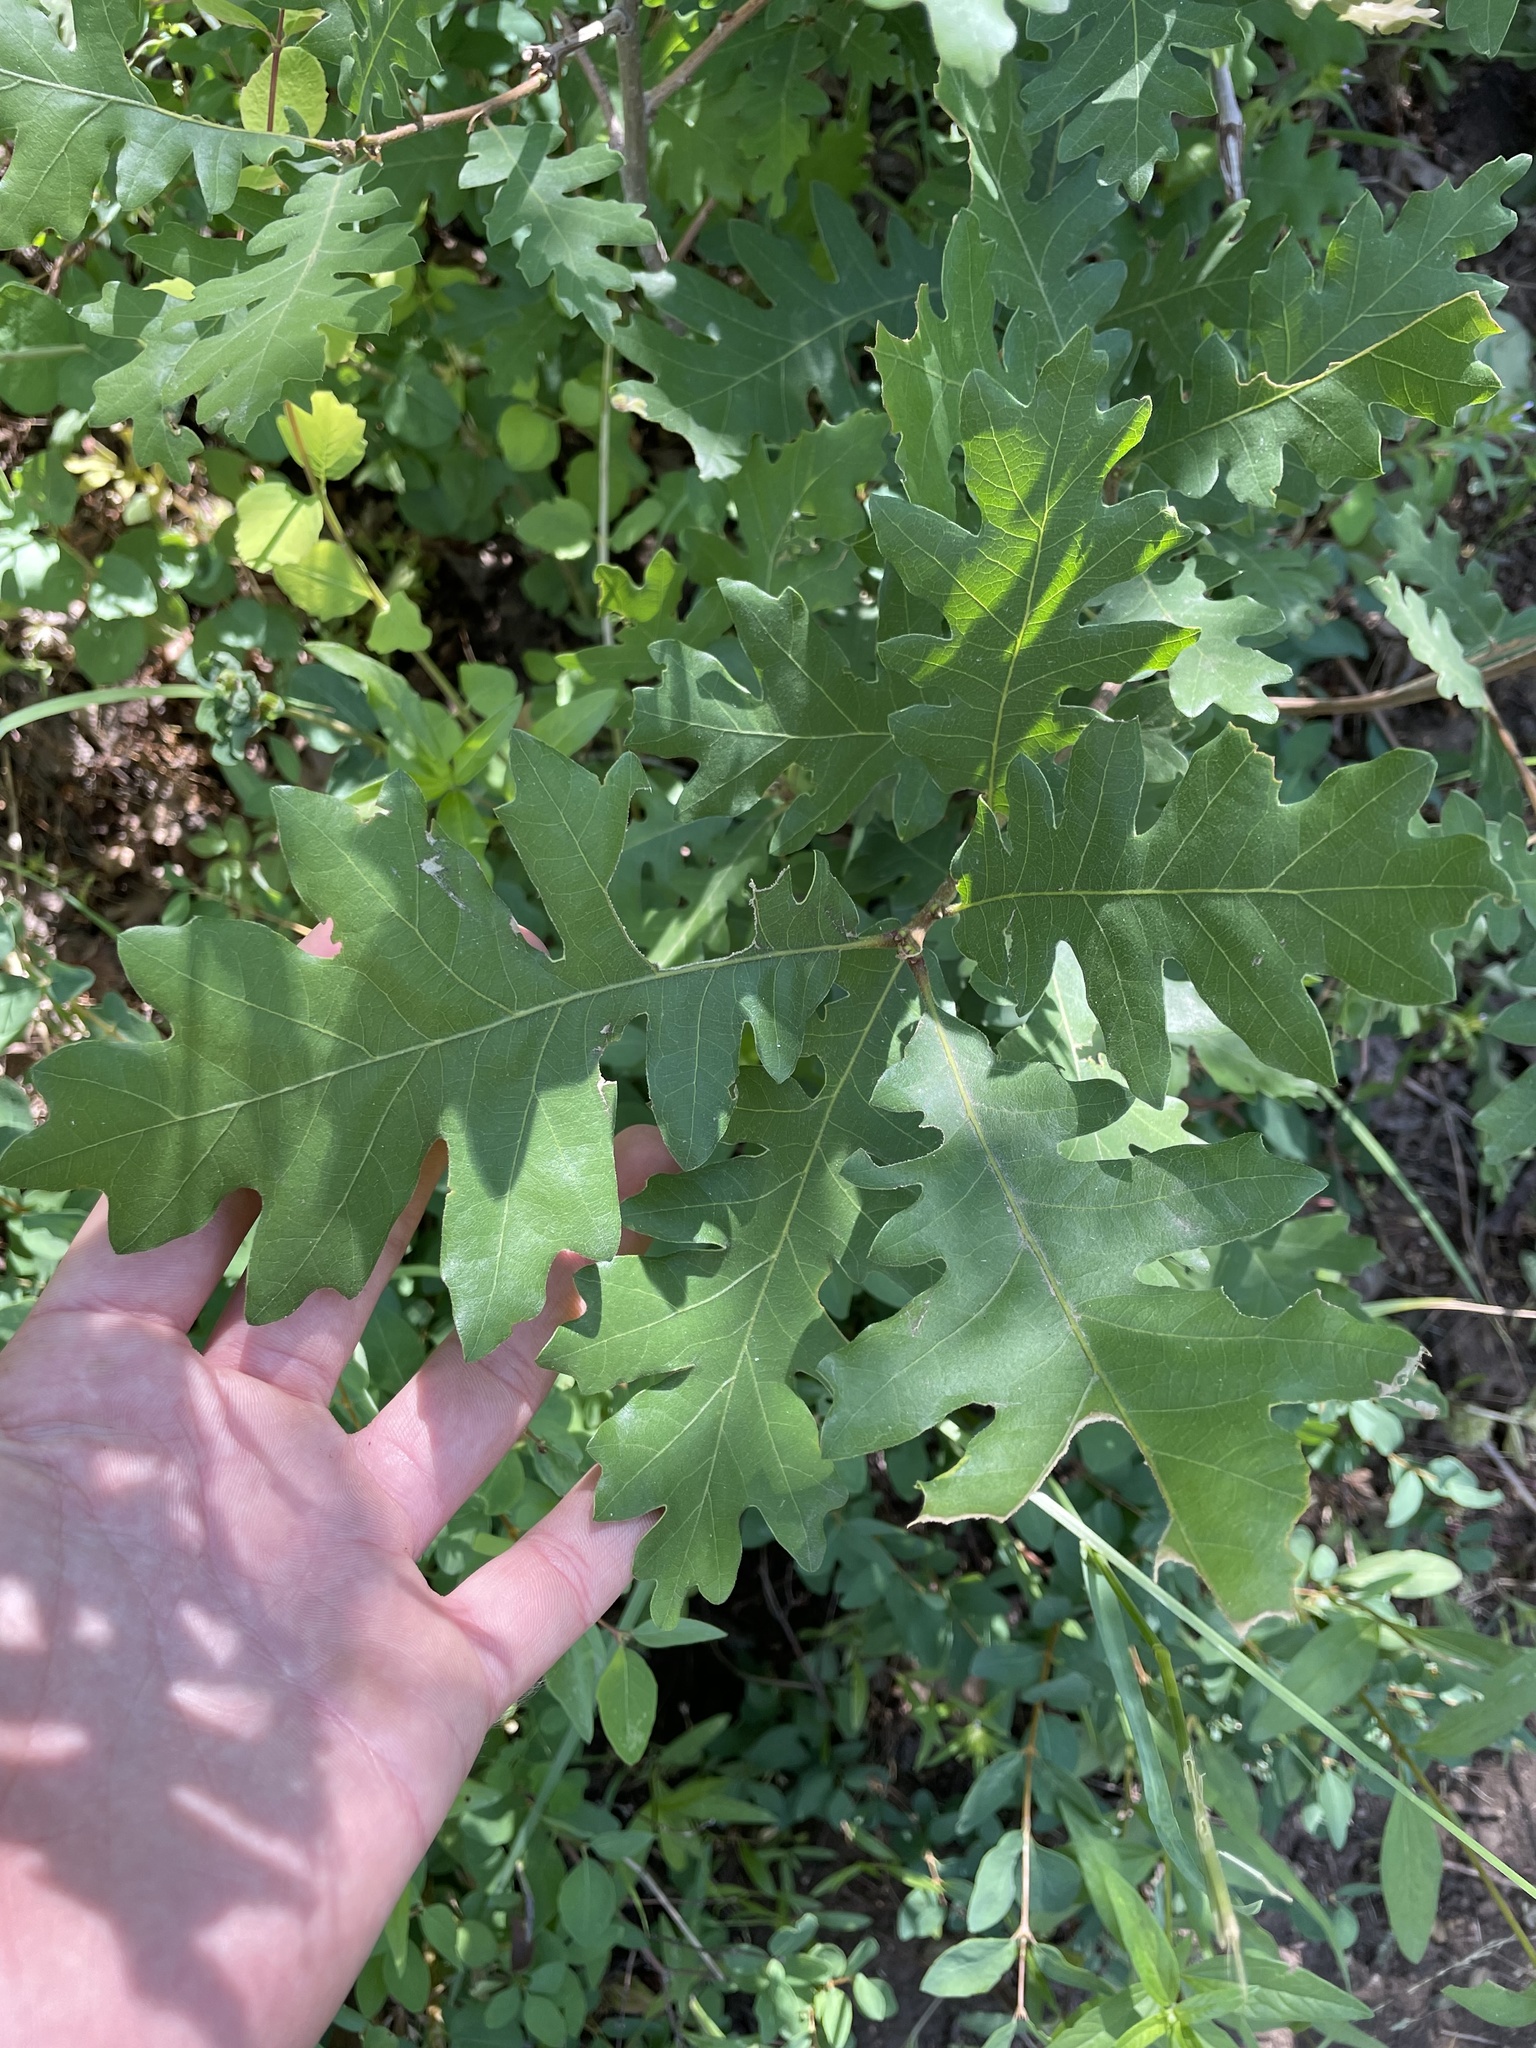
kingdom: Plantae
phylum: Tracheophyta
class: Magnoliopsida
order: Fagales
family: Fagaceae
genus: Quercus
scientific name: Quercus gambelii
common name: Gambel oak
